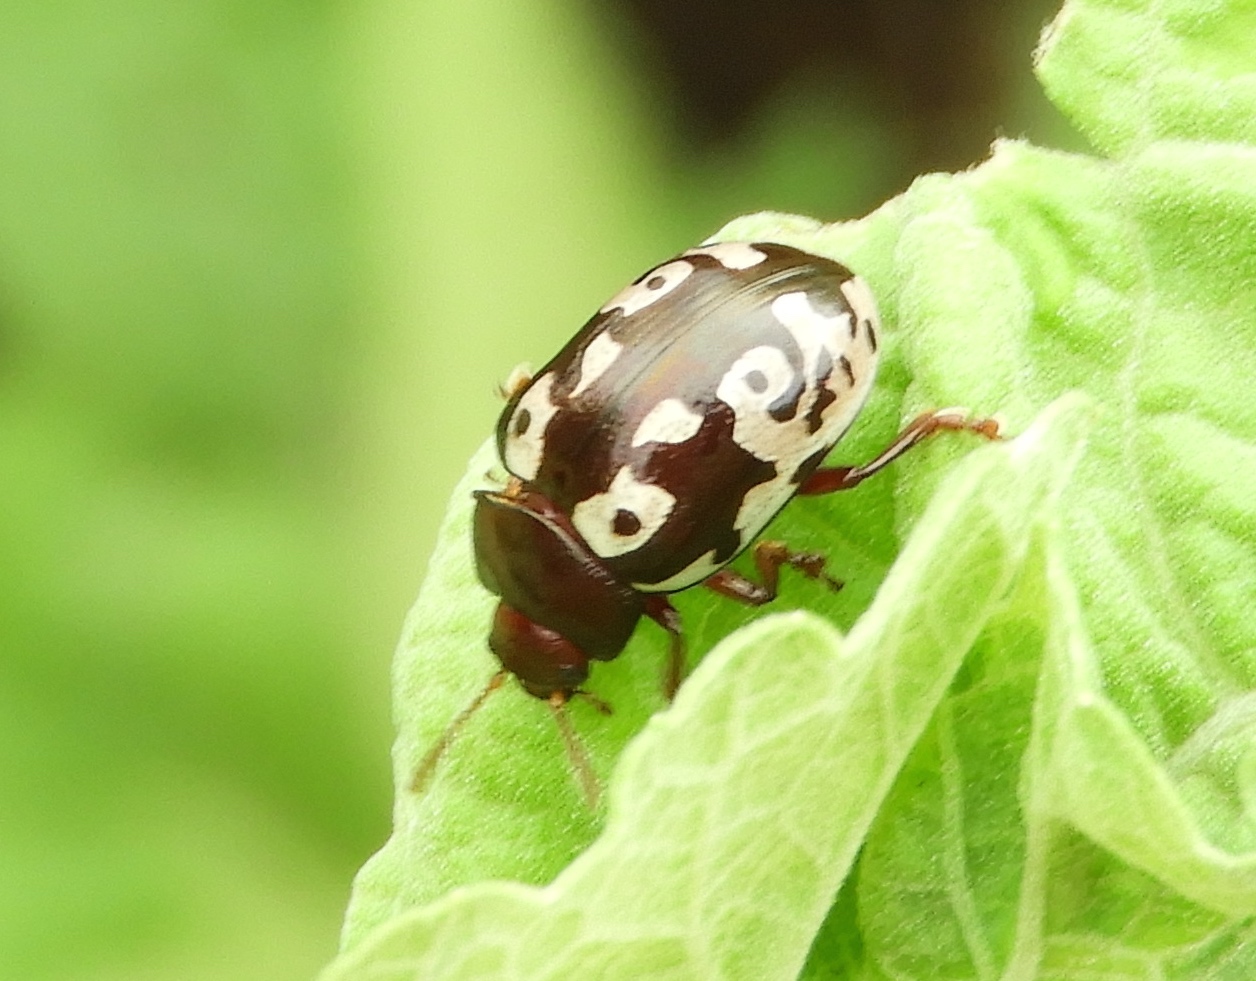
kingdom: Animalia
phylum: Arthropoda
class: Insecta
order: Coleoptera
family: Chrysomelidae
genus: Calligrapha
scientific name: Calligrapha intermedia
